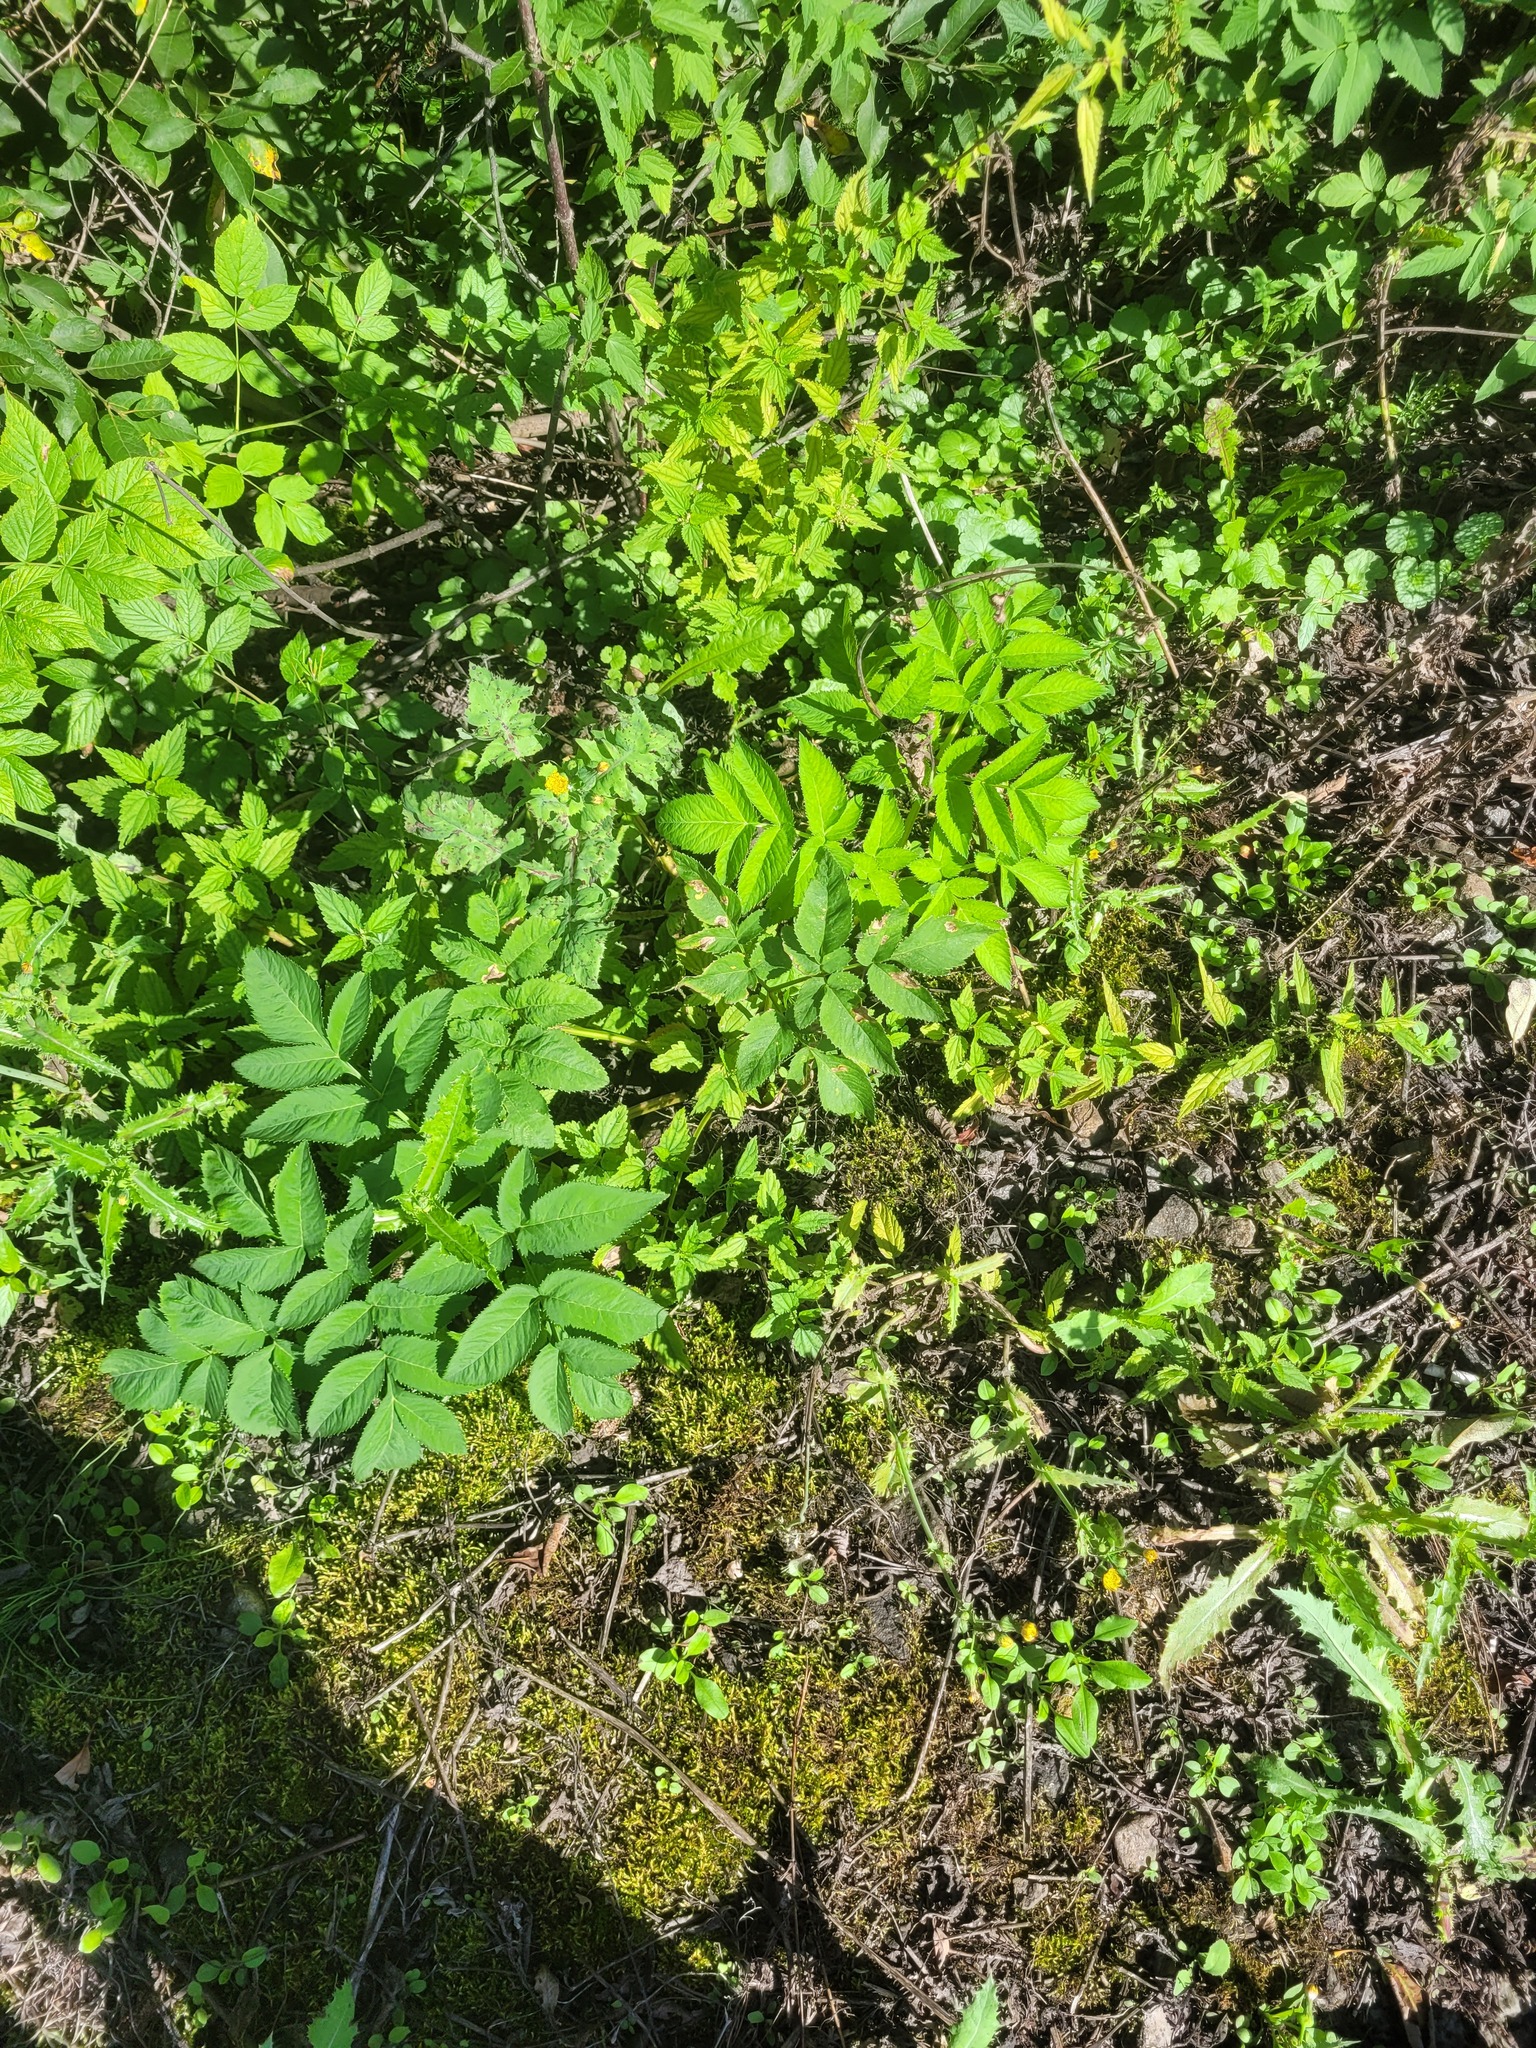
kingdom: Plantae
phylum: Tracheophyta
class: Magnoliopsida
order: Apiales
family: Apiaceae
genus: Angelica
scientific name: Angelica sylvestris
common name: Wild angelica
